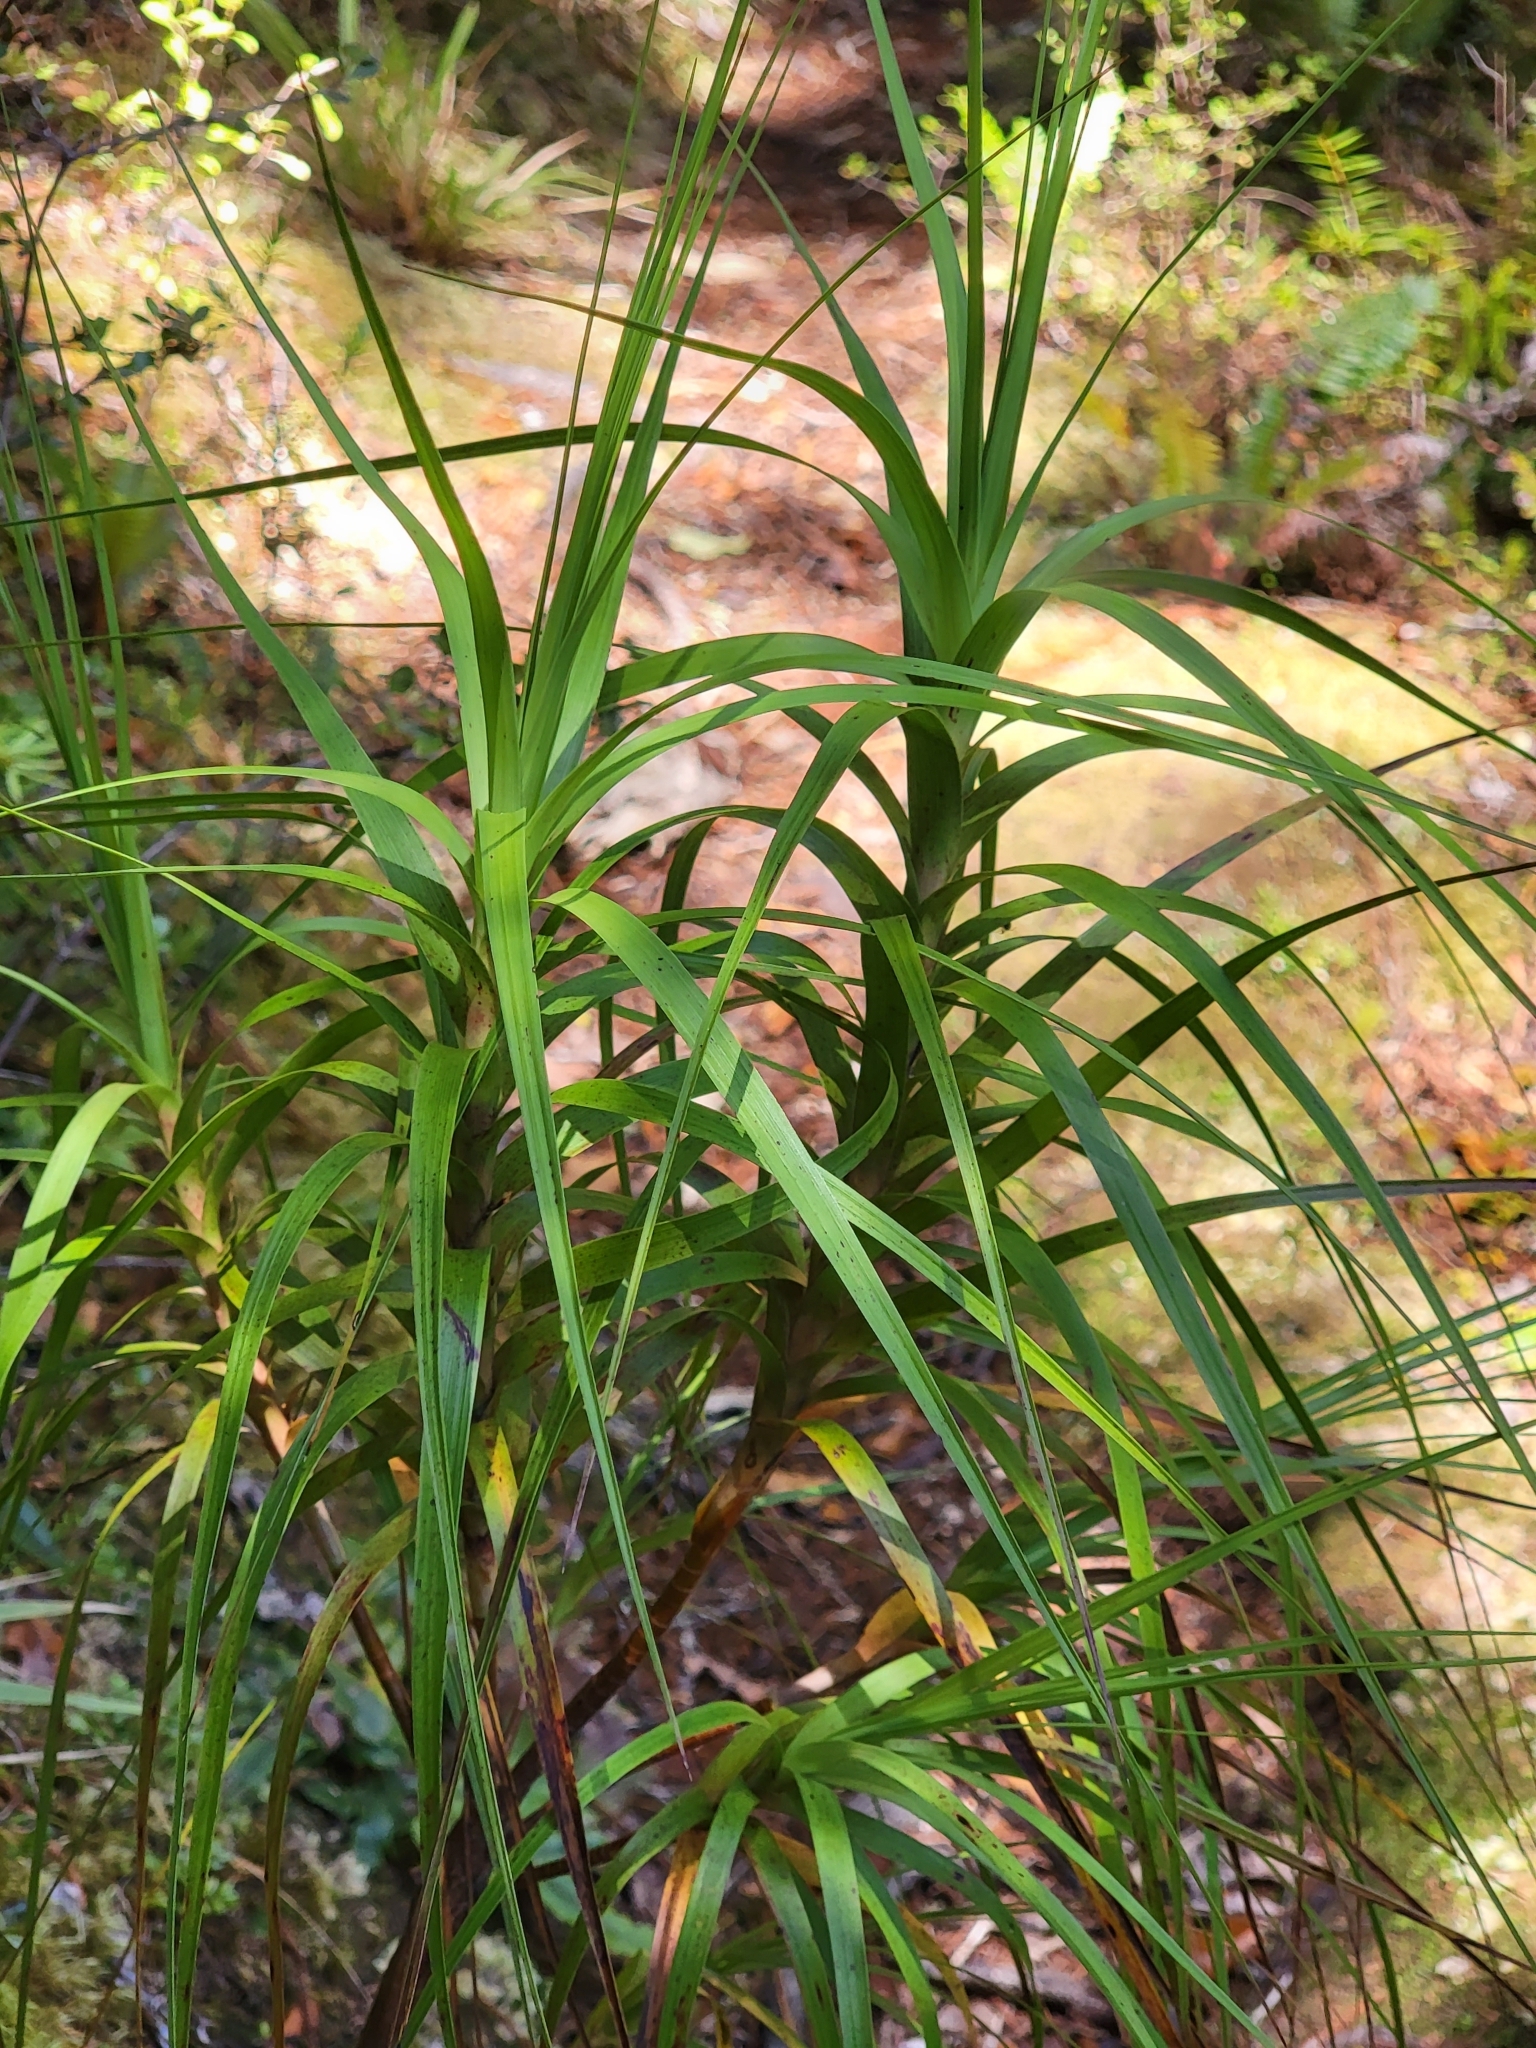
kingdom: Plantae
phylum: Tracheophyta
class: Magnoliopsida
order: Ericales
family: Ericaceae
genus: Dracophyllum
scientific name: Dracophyllum longifolium
